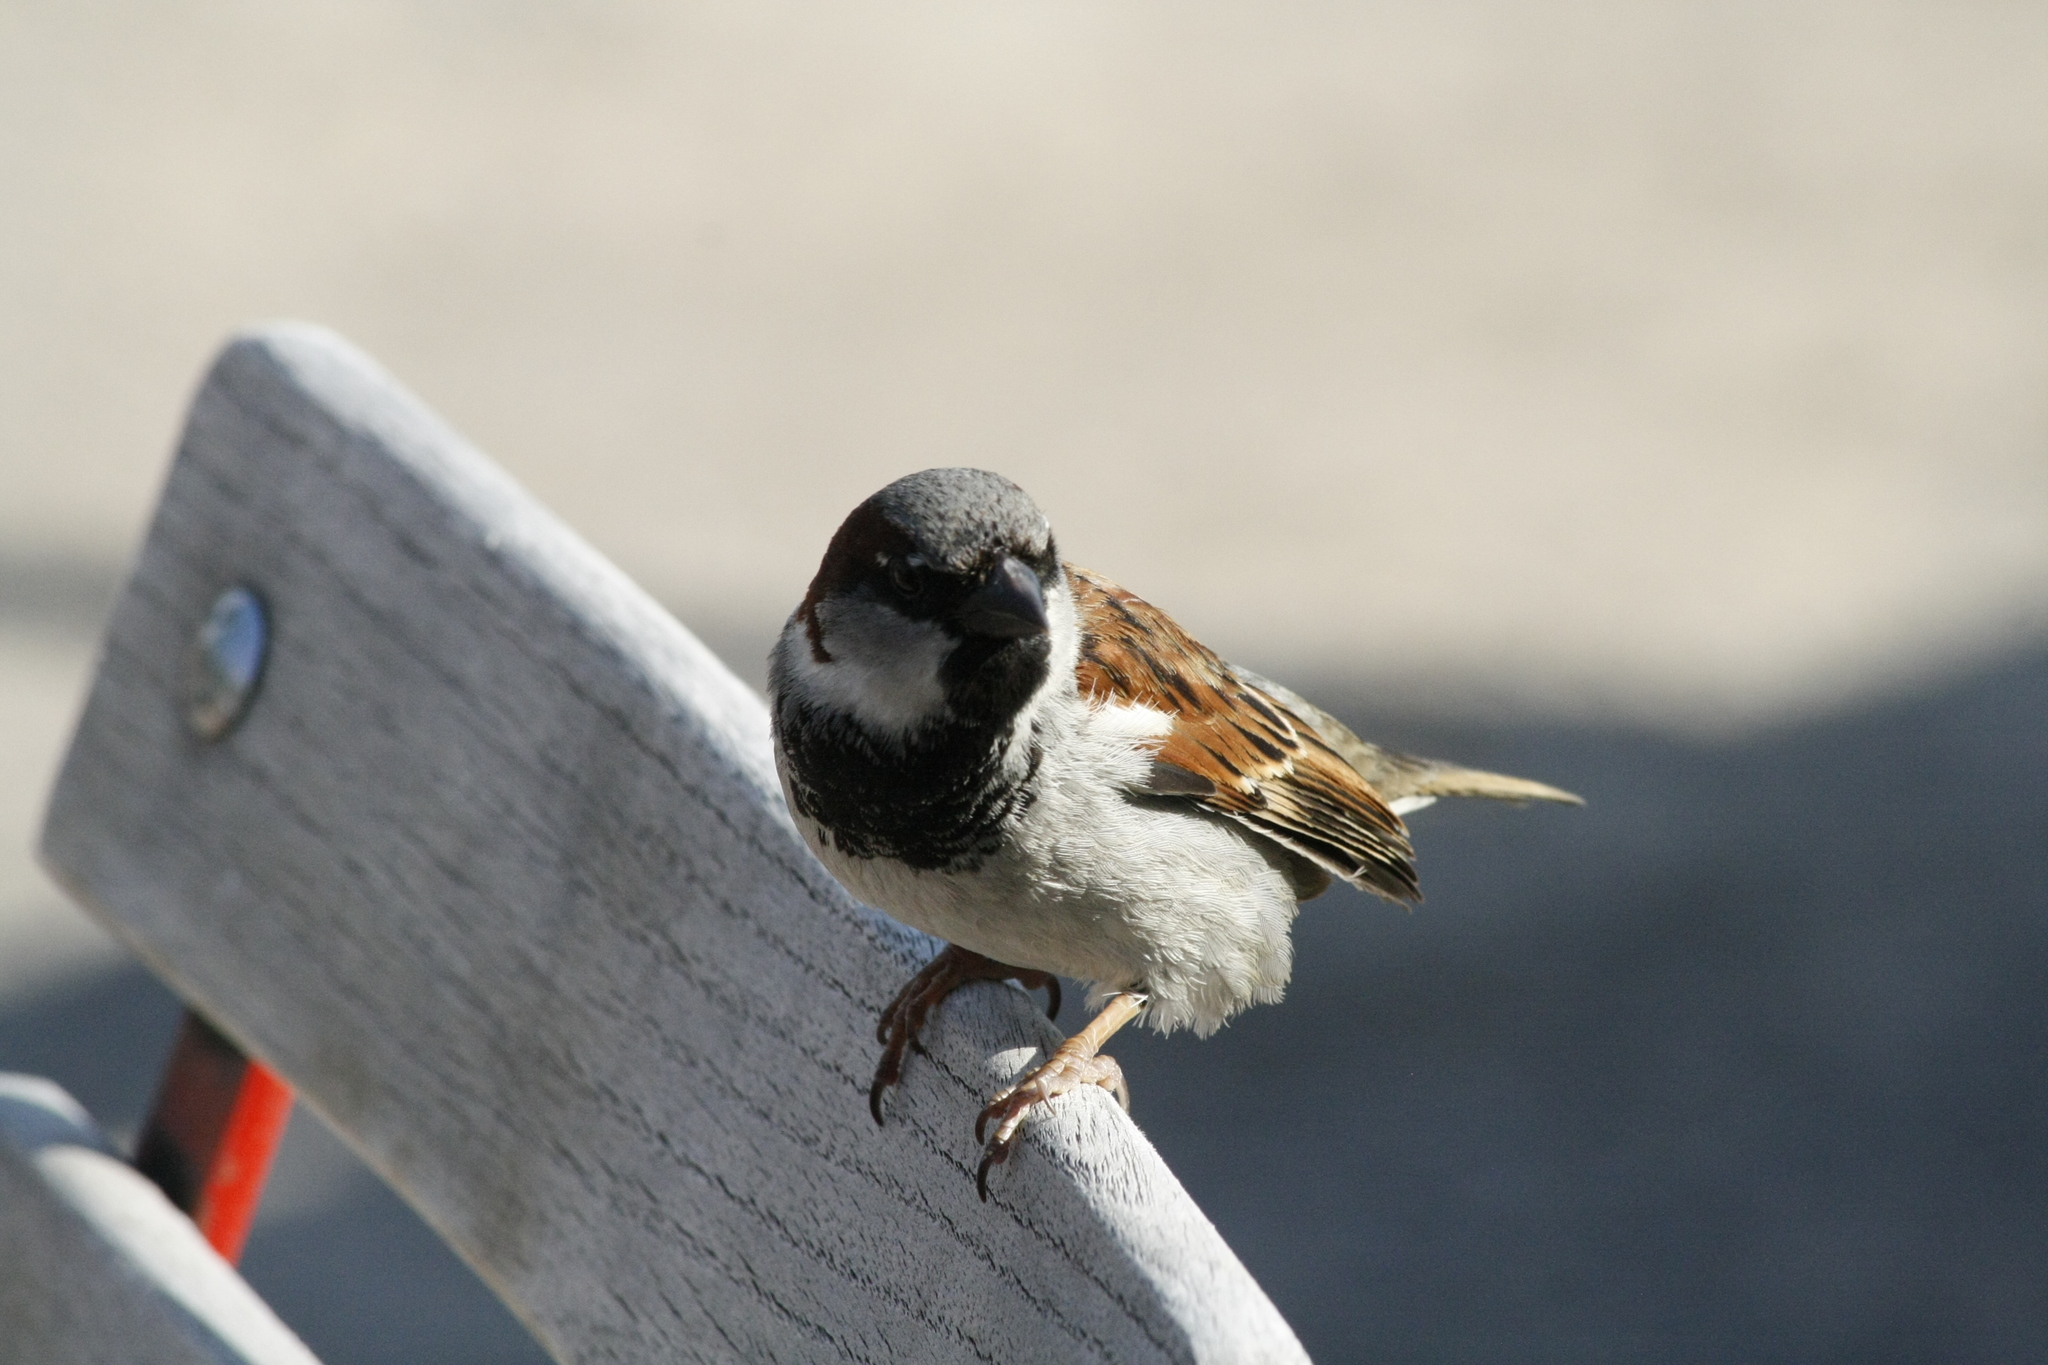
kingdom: Animalia
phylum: Chordata
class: Aves
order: Passeriformes
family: Passeridae
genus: Passer
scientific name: Passer domesticus
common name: House sparrow
